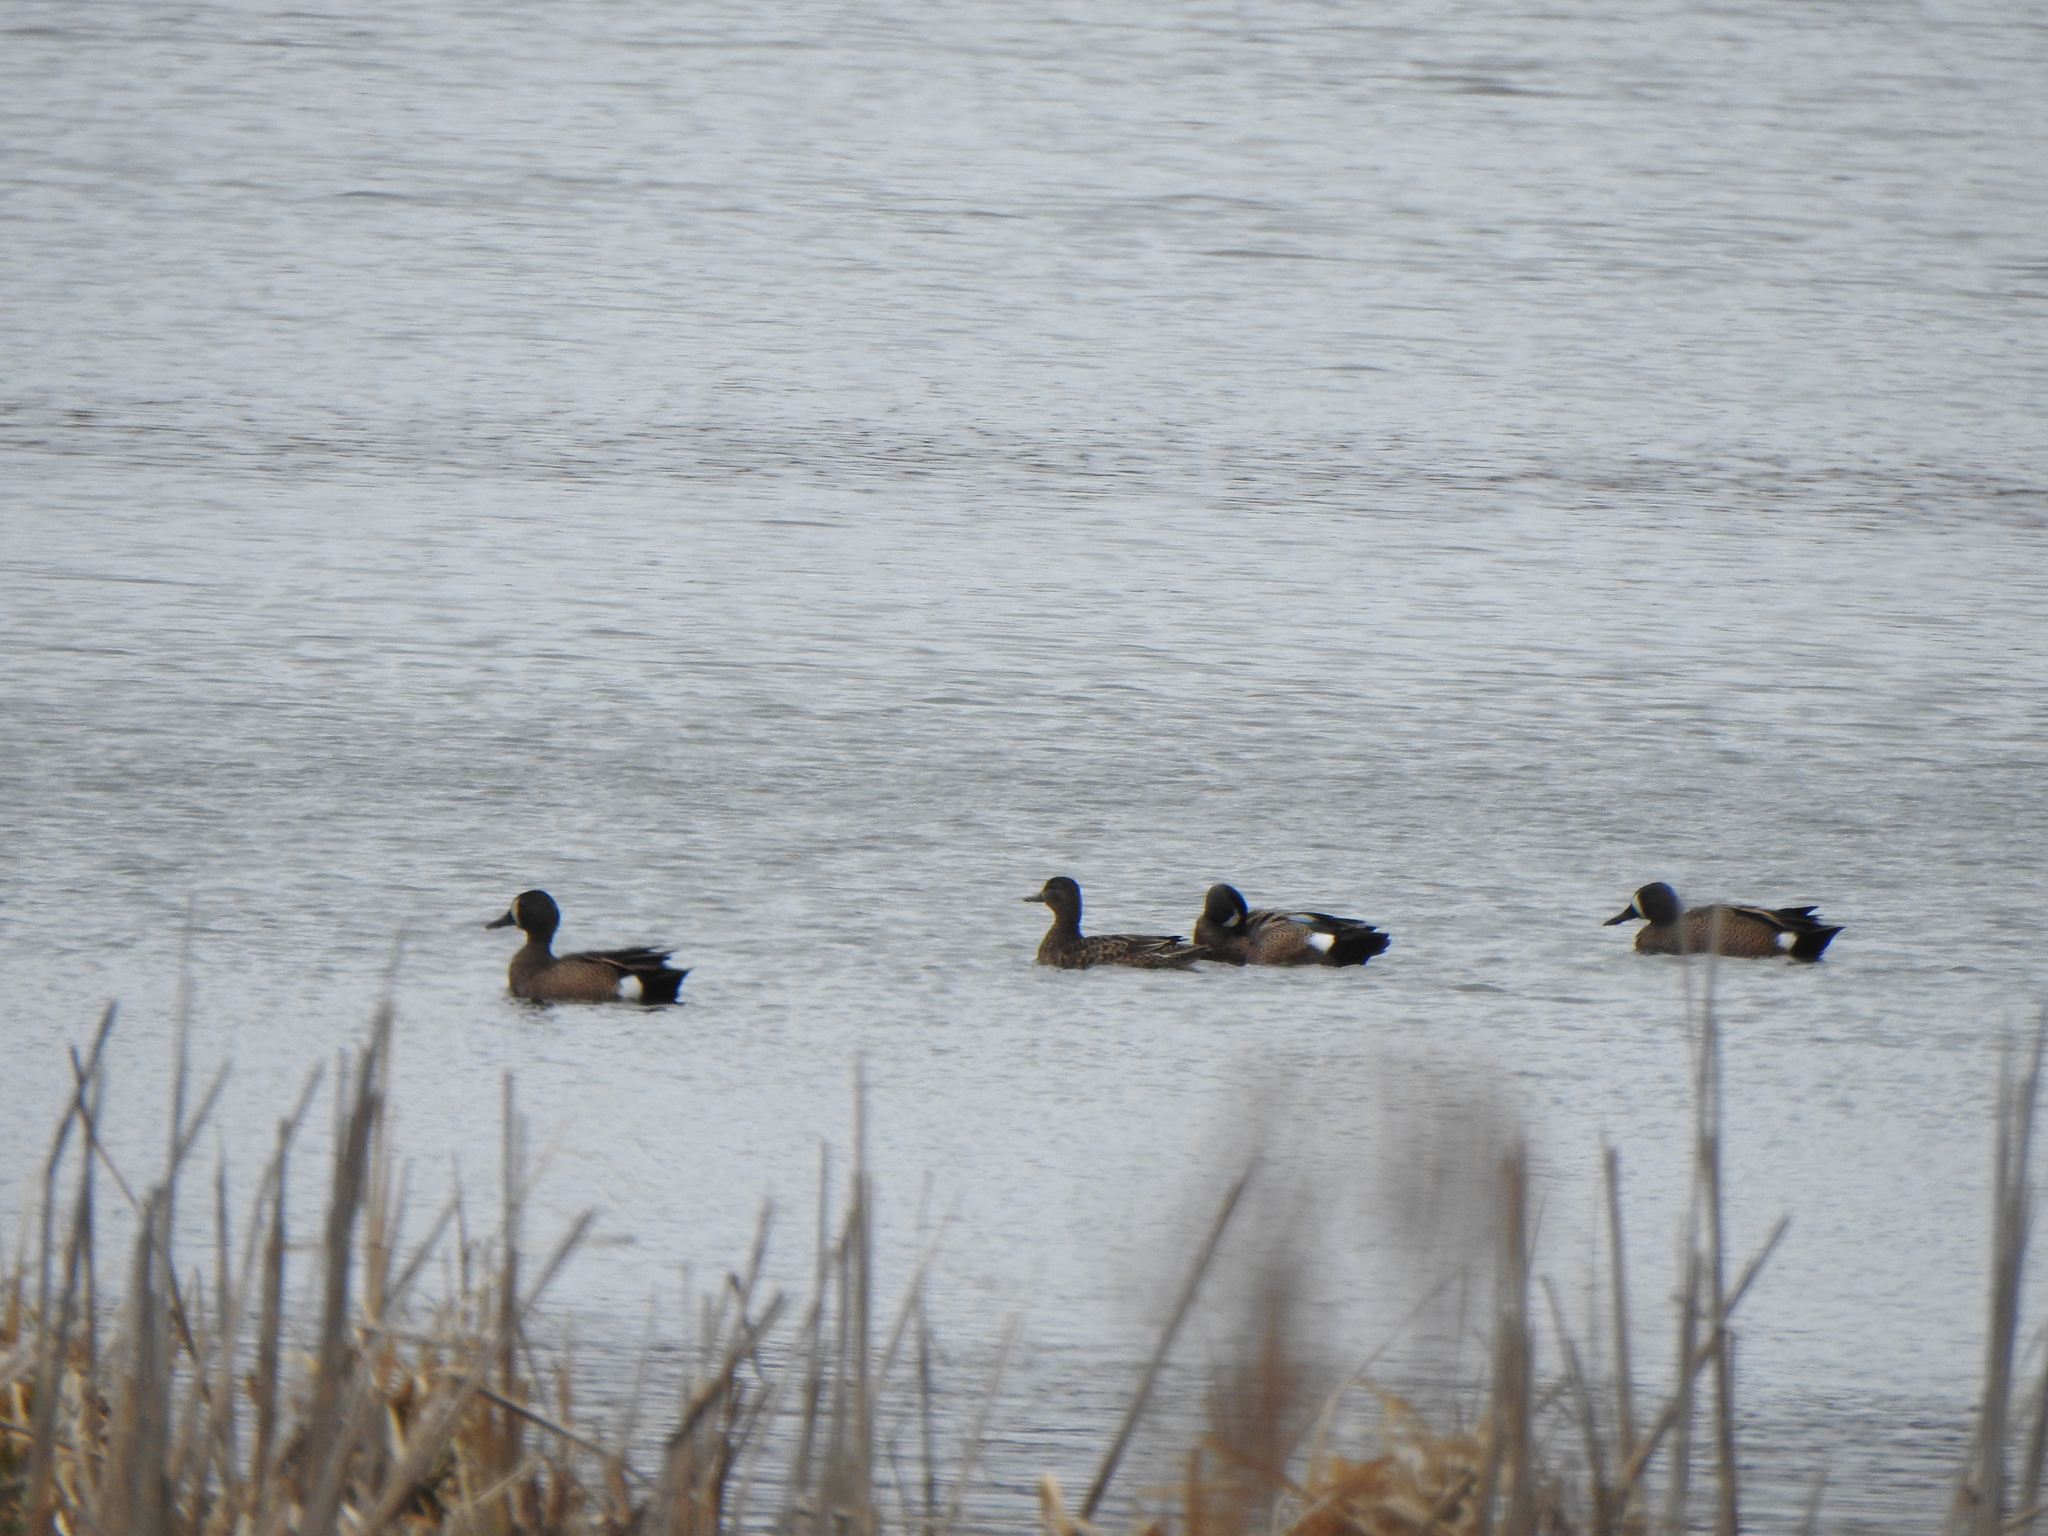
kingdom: Animalia
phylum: Chordata
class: Aves
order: Anseriformes
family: Anatidae
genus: Spatula
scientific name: Spatula discors
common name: Blue-winged teal
